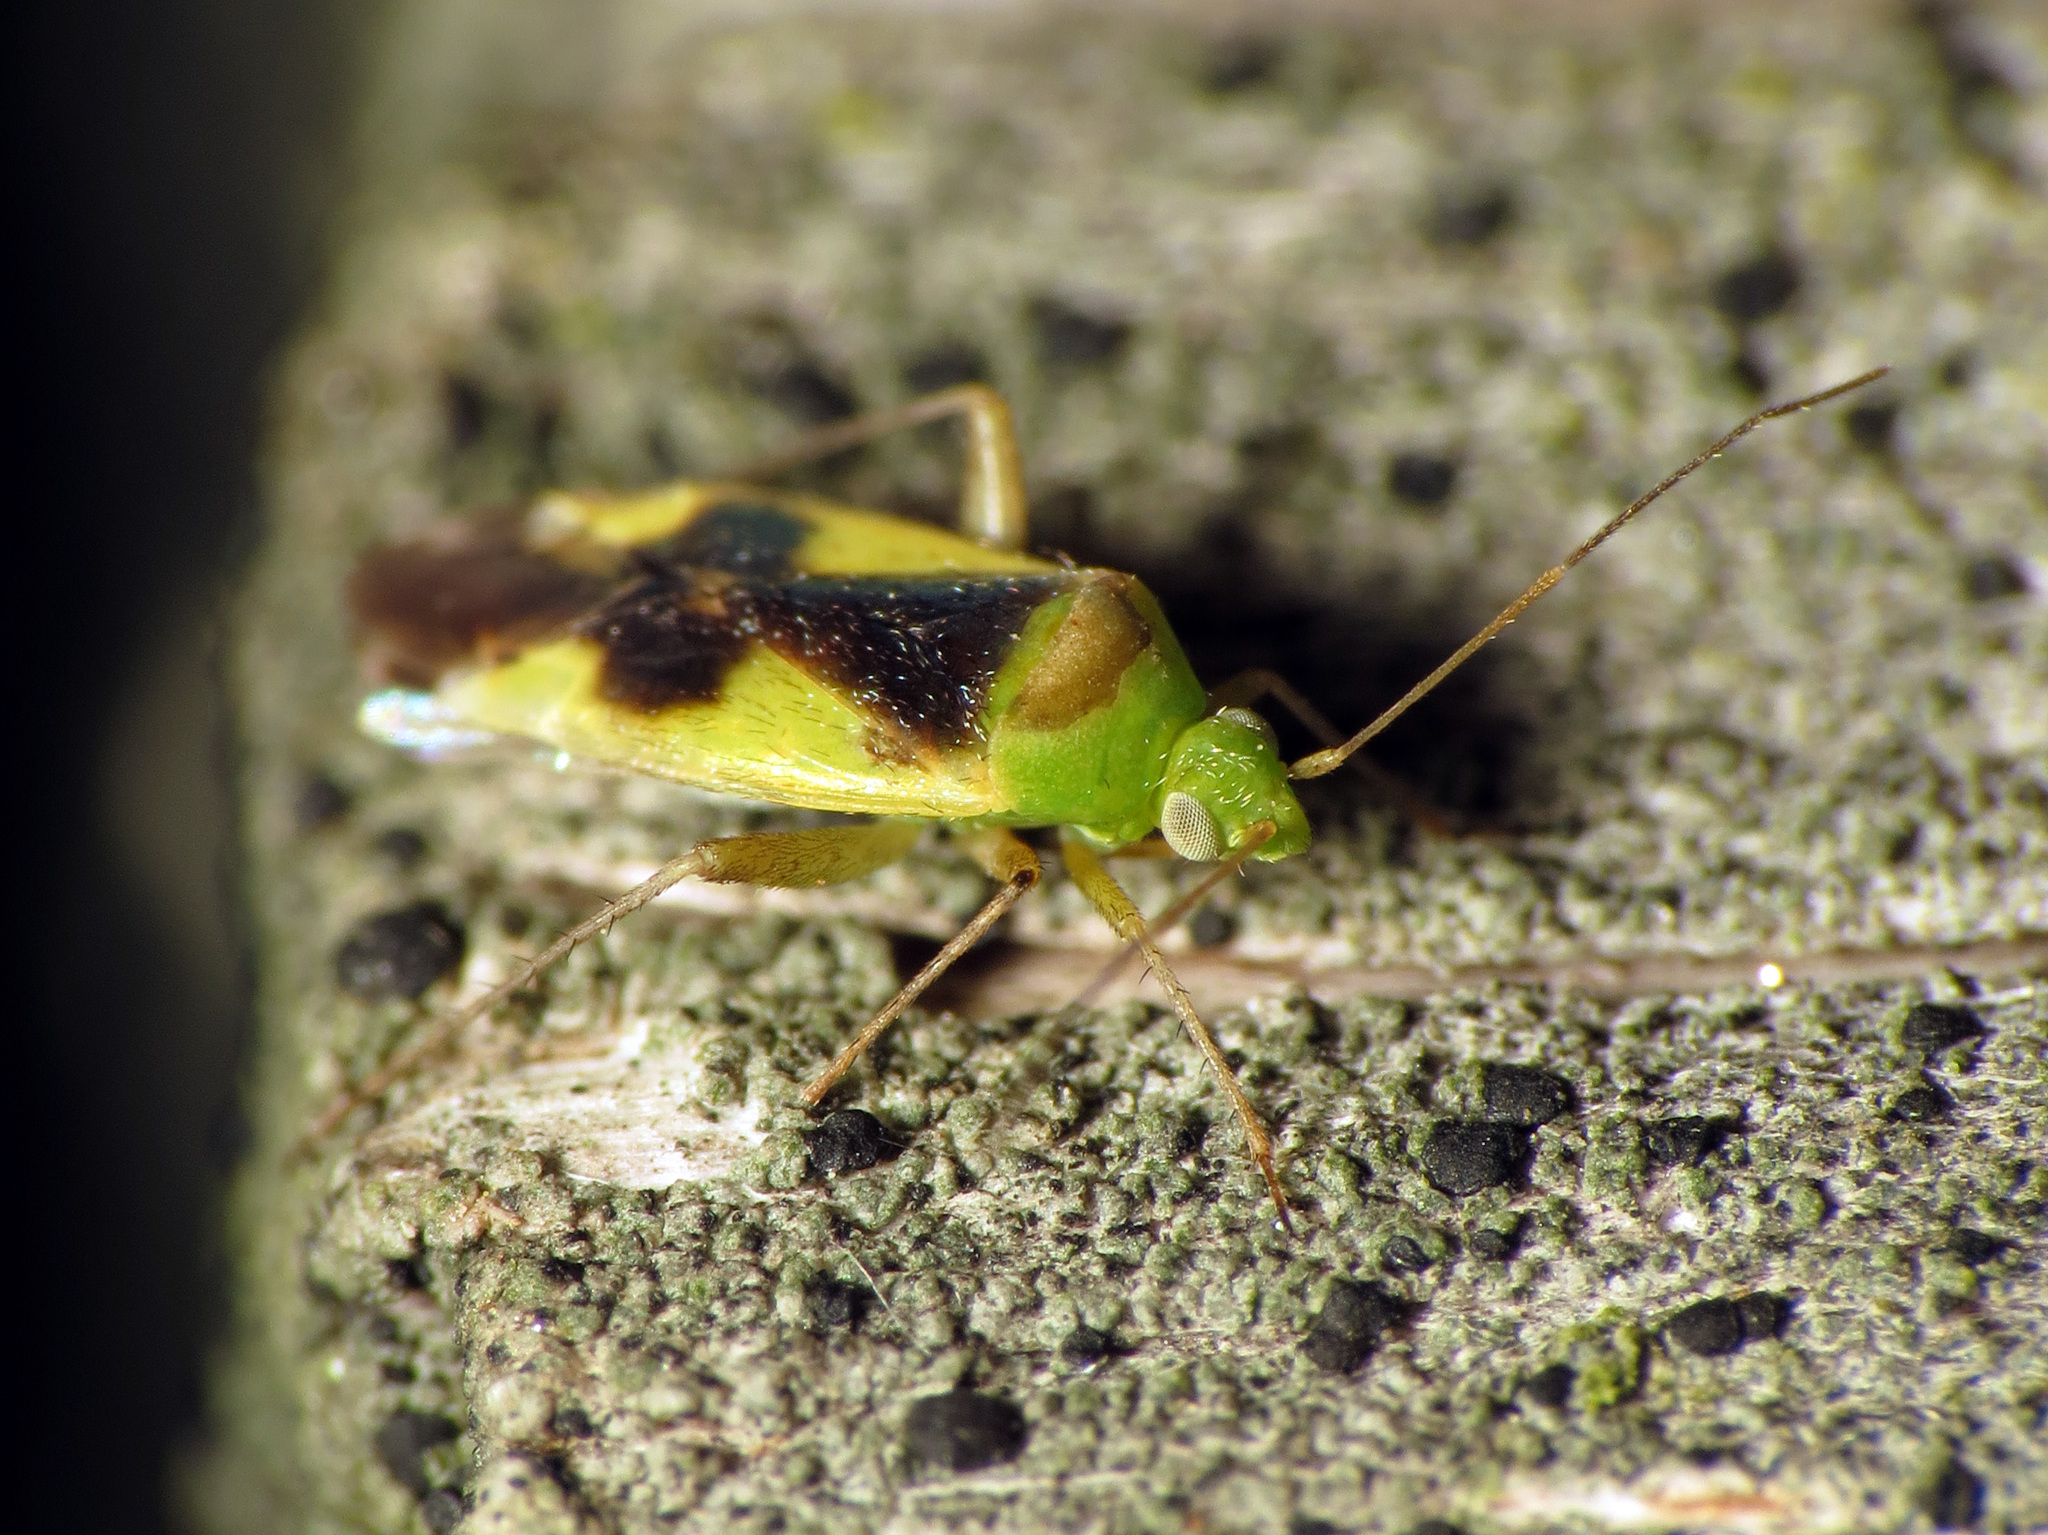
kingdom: Animalia
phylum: Arthropoda
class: Insecta
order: Hemiptera
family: Miridae
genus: Reuteroscopus
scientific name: Reuteroscopus ornatus
